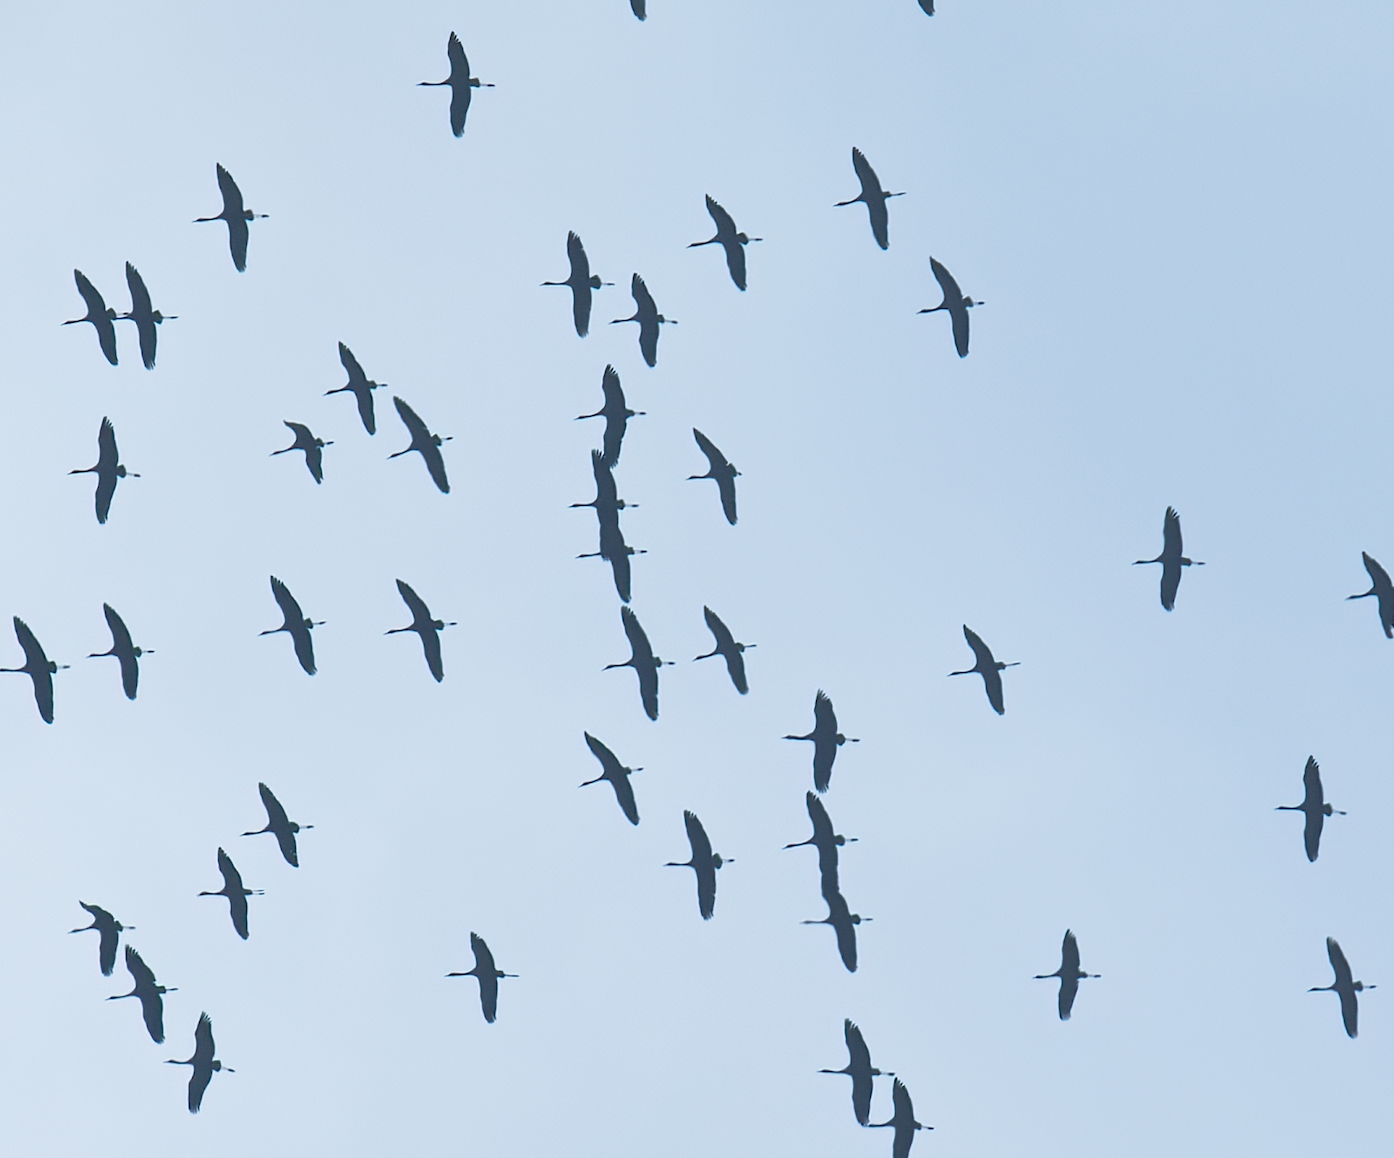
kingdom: Animalia
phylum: Chordata
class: Aves
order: Gruiformes
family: Gruidae
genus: Grus
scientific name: Grus grus
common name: Common crane
